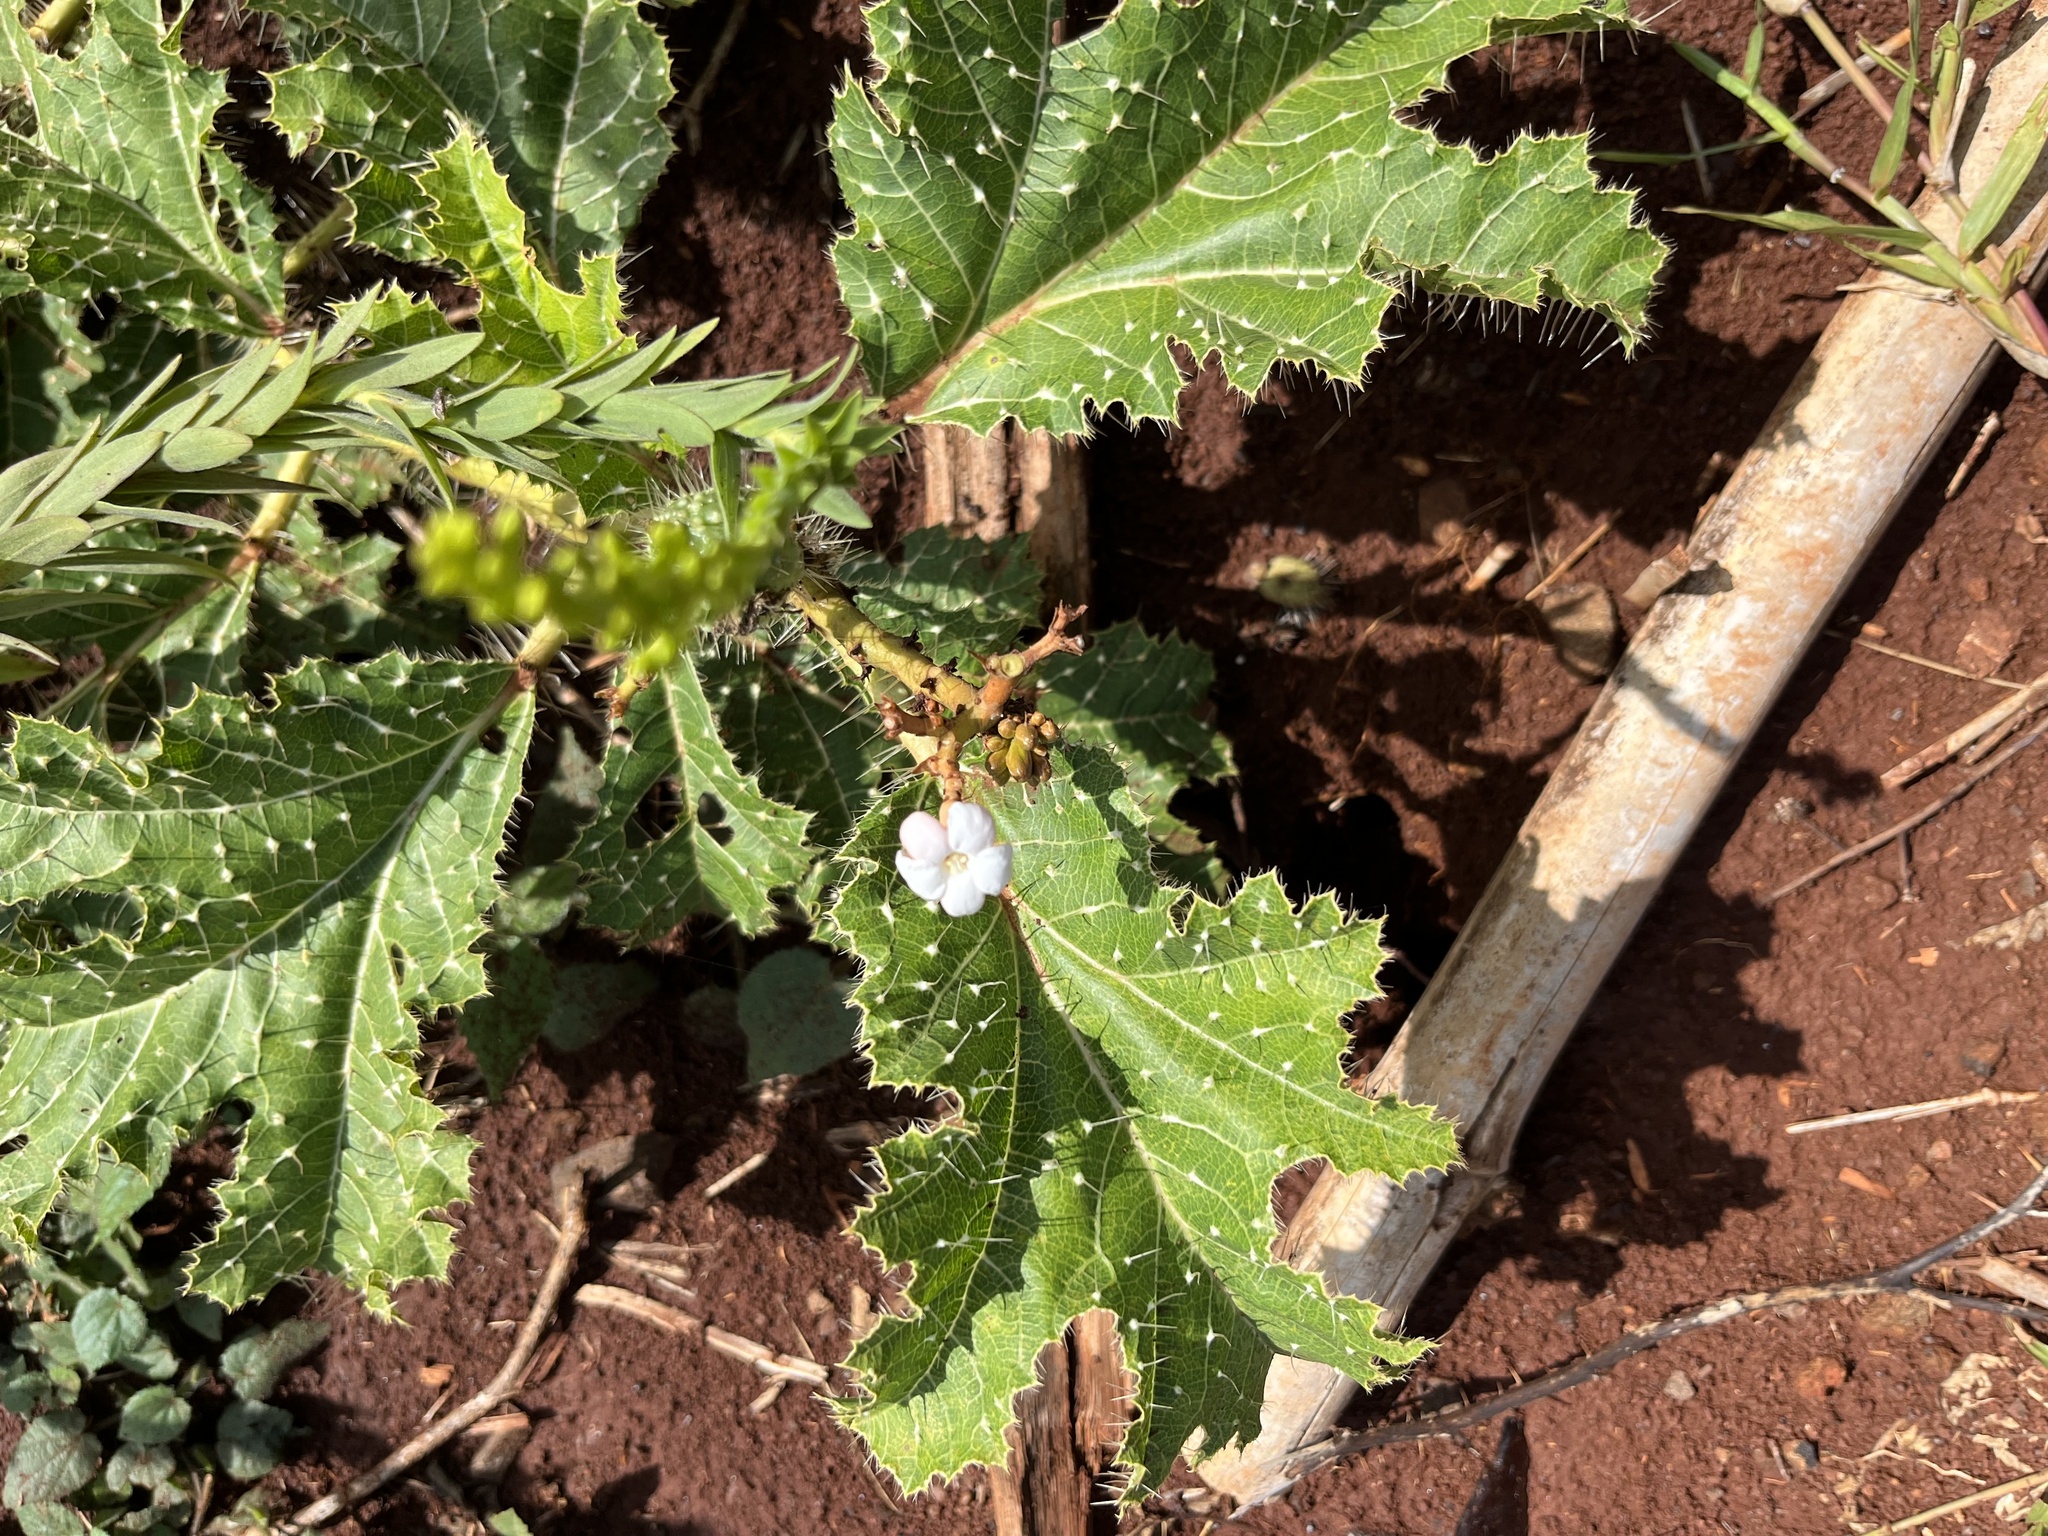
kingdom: Plantae
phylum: Tracheophyta
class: Magnoliopsida
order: Malpighiales
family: Euphorbiaceae
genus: Cnidoscolus
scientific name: Cnidoscolus albomaculatus
